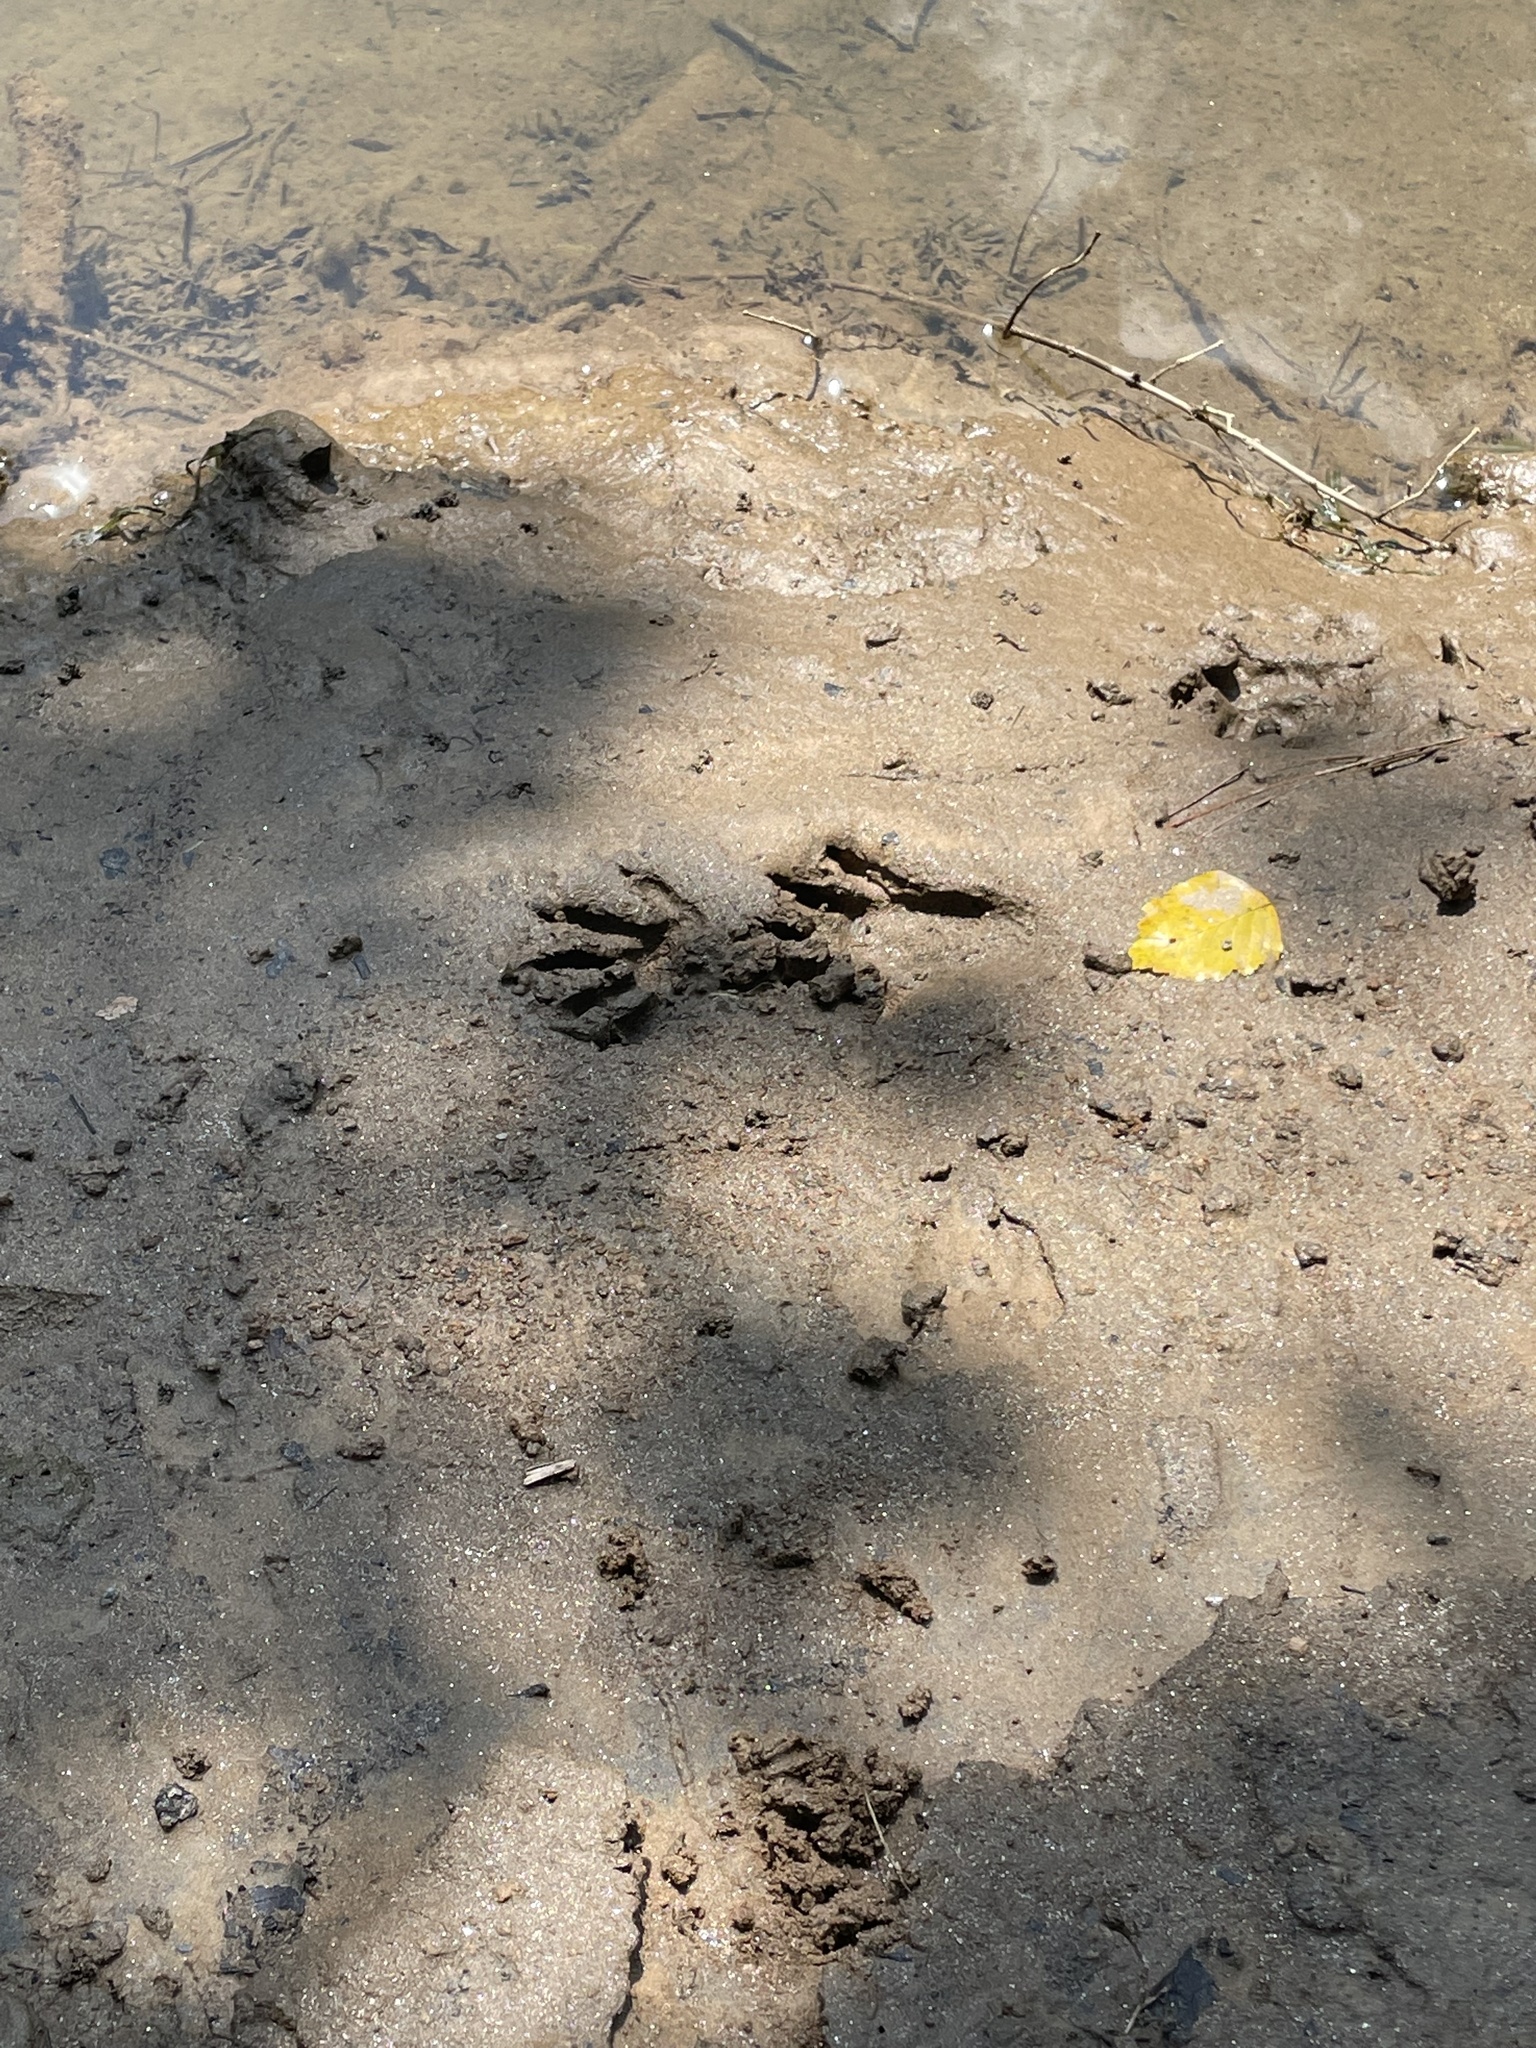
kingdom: Animalia
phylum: Chordata
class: Mammalia
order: Carnivora
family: Procyonidae
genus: Procyon
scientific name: Procyon lotor
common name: Raccoon
